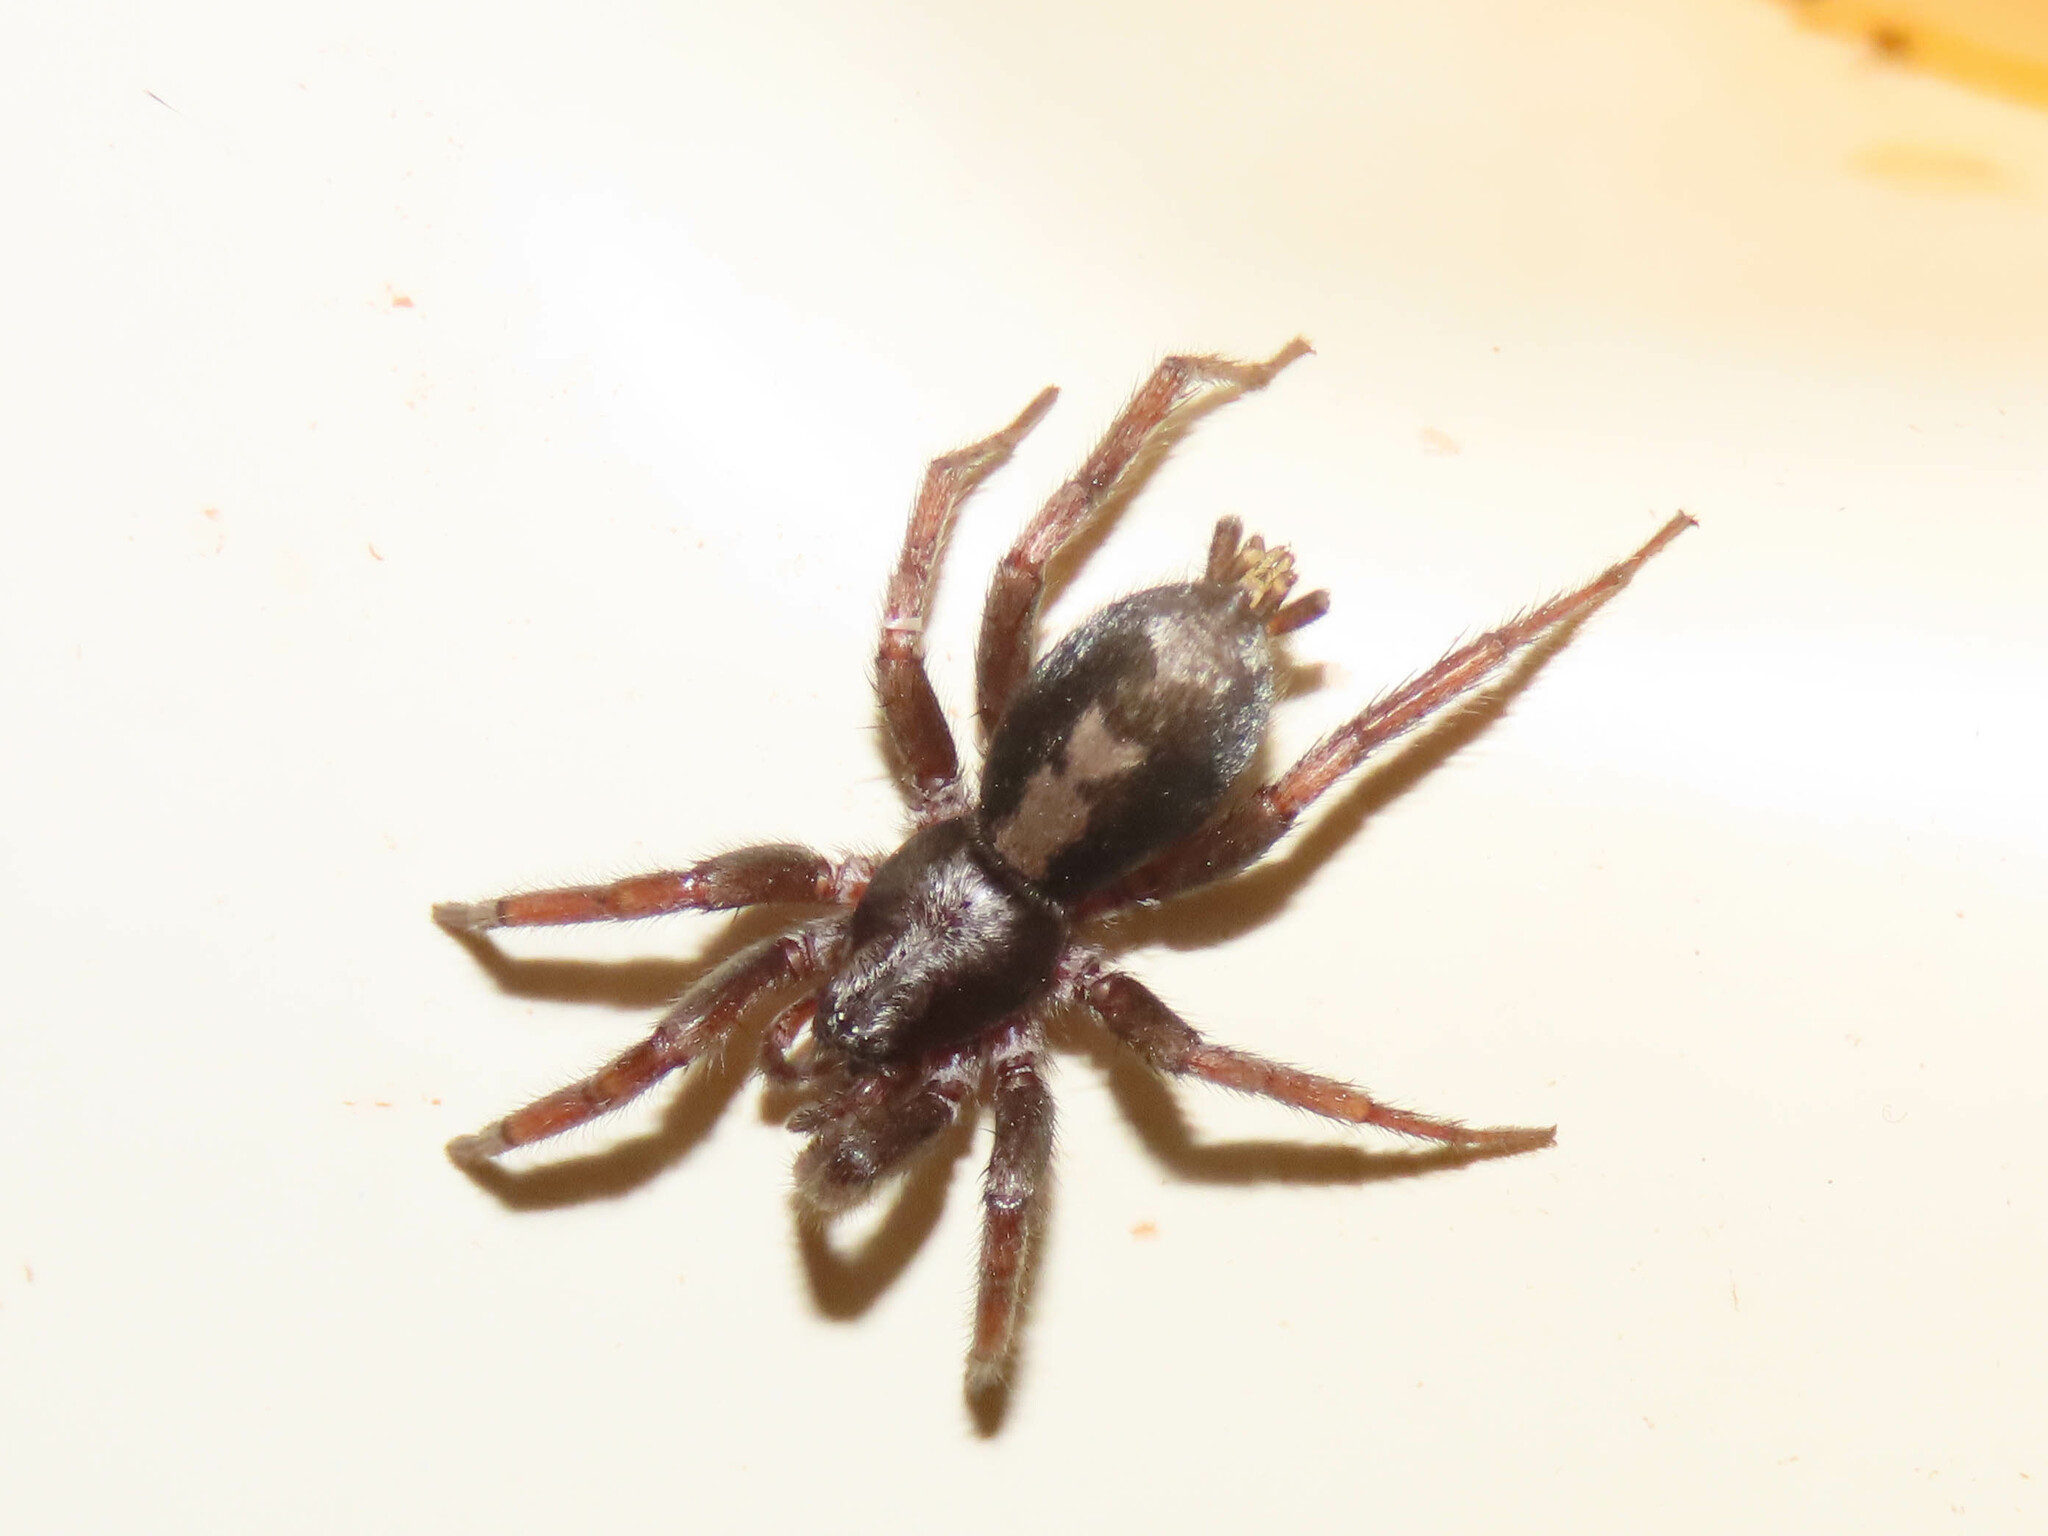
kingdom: Animalia
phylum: Arthropoda
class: Arachnida
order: Araneae
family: Gnaphosidae
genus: Herpyllus
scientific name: Herpyllus ecclesiasticus
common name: Eastern parson spider
